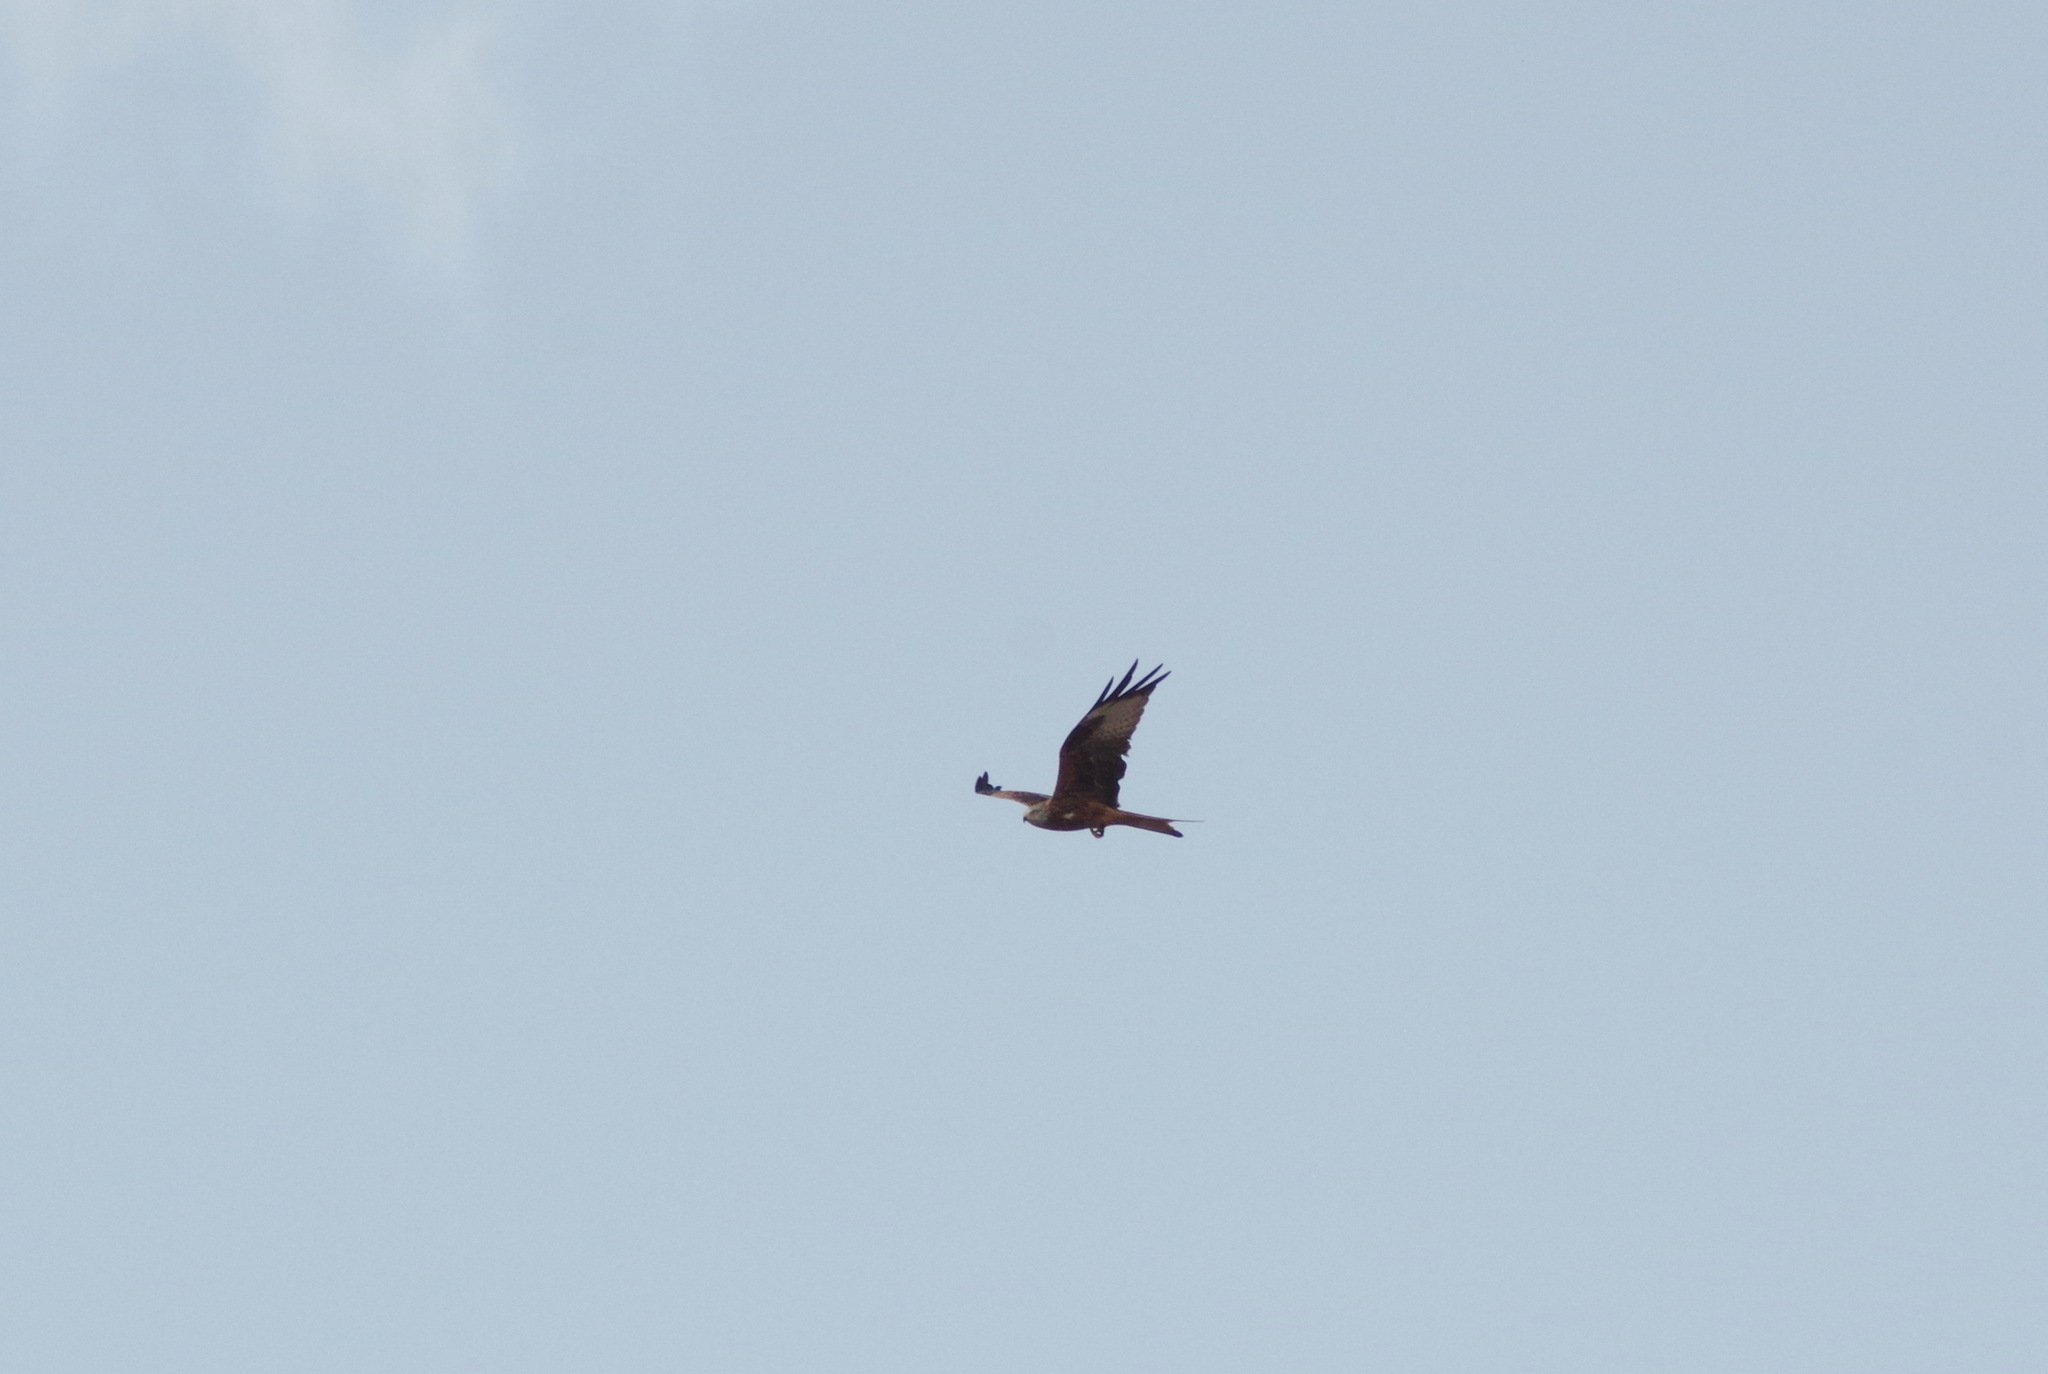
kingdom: Animalia
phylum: Chordata
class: Aves
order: Accipitriformes
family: Accipitridae
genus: Milvus
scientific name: Milvus milvus
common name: Red kite
